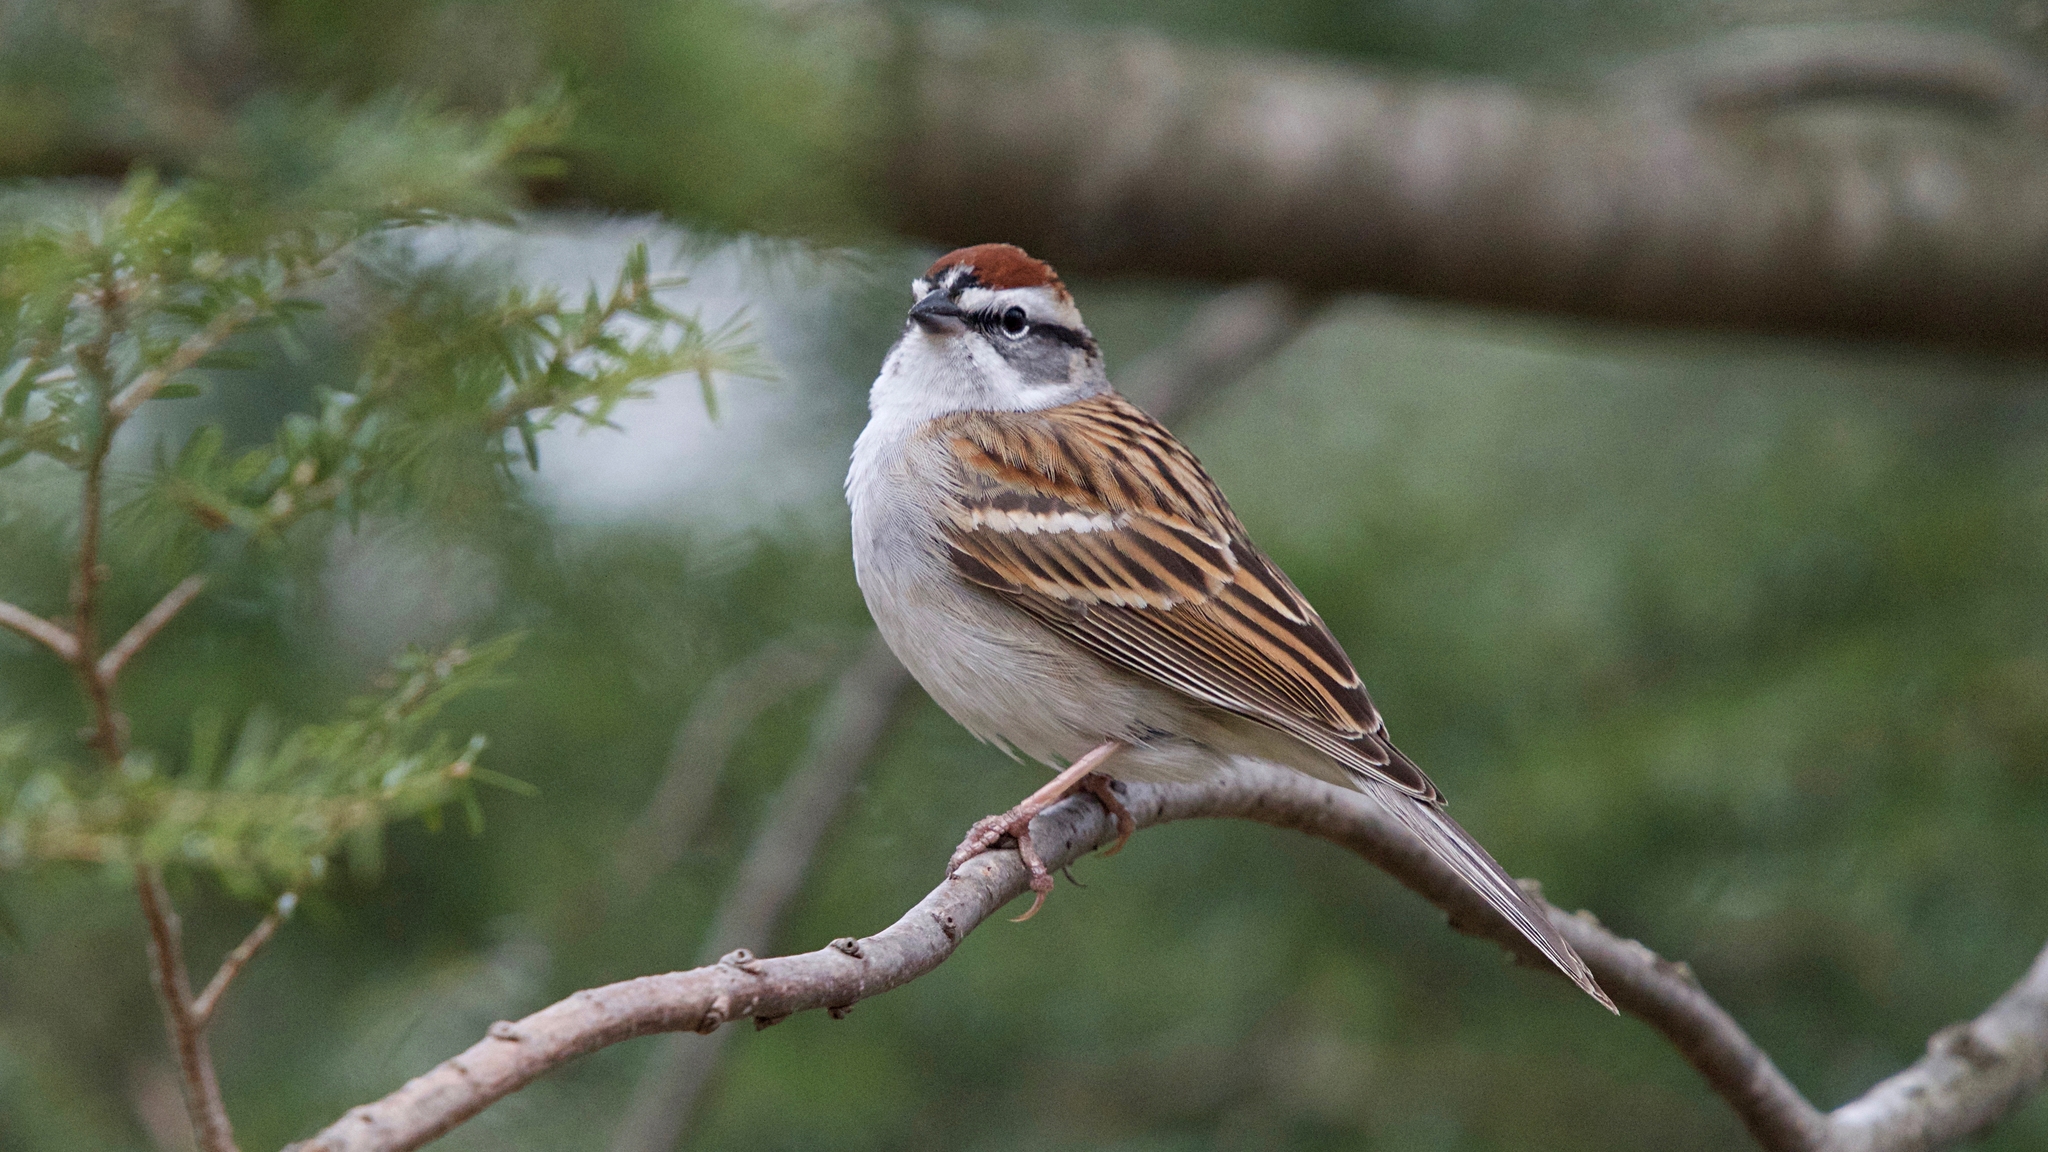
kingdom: Animalia
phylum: Chordata
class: Aves
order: Passeriformes
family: Passerellidae
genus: Spizella
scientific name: Spizella passerina
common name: Chipping sparrow
